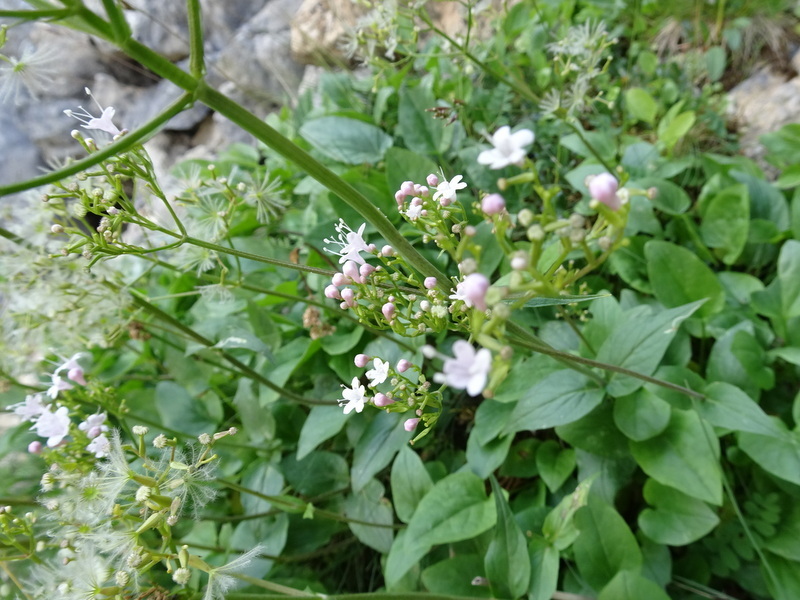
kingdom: Plantae
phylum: Tracheophyta
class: Magnoliopsida
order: Dipsacales
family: Caprifoliaceae
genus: Valeriana
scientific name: Valeriana montana
